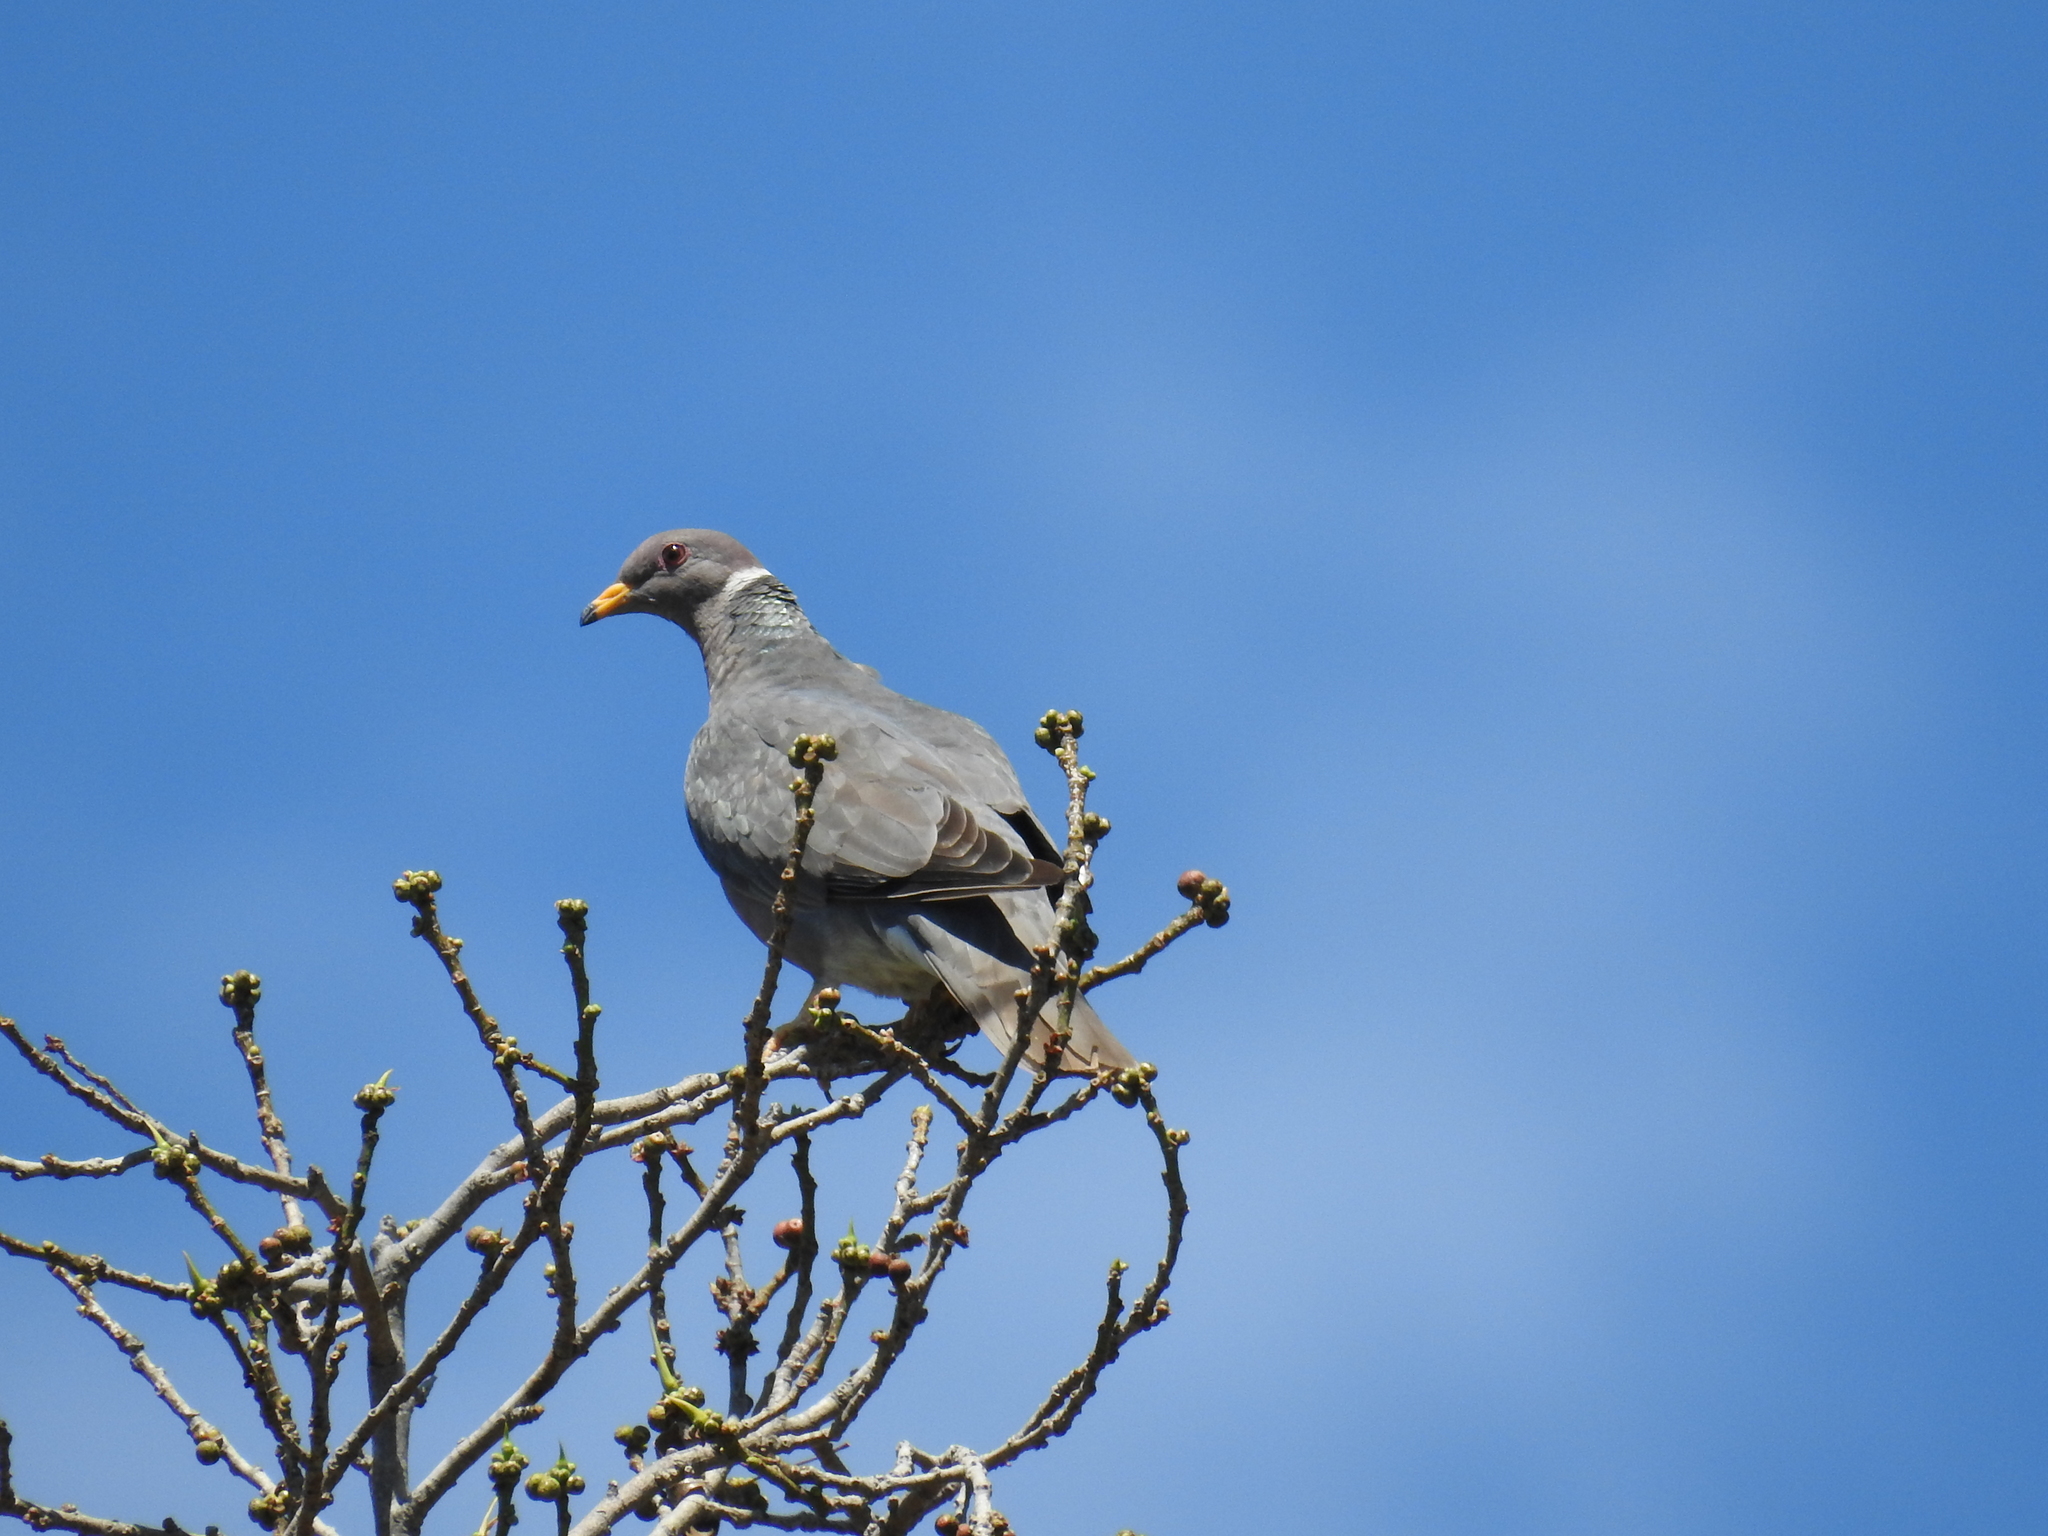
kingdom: Animalia
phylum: Chordata
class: Aves
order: Columbiformes
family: Columbidae
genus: Patagioenas
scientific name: Patagioenas fasciata
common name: Band-tailed pigeon
